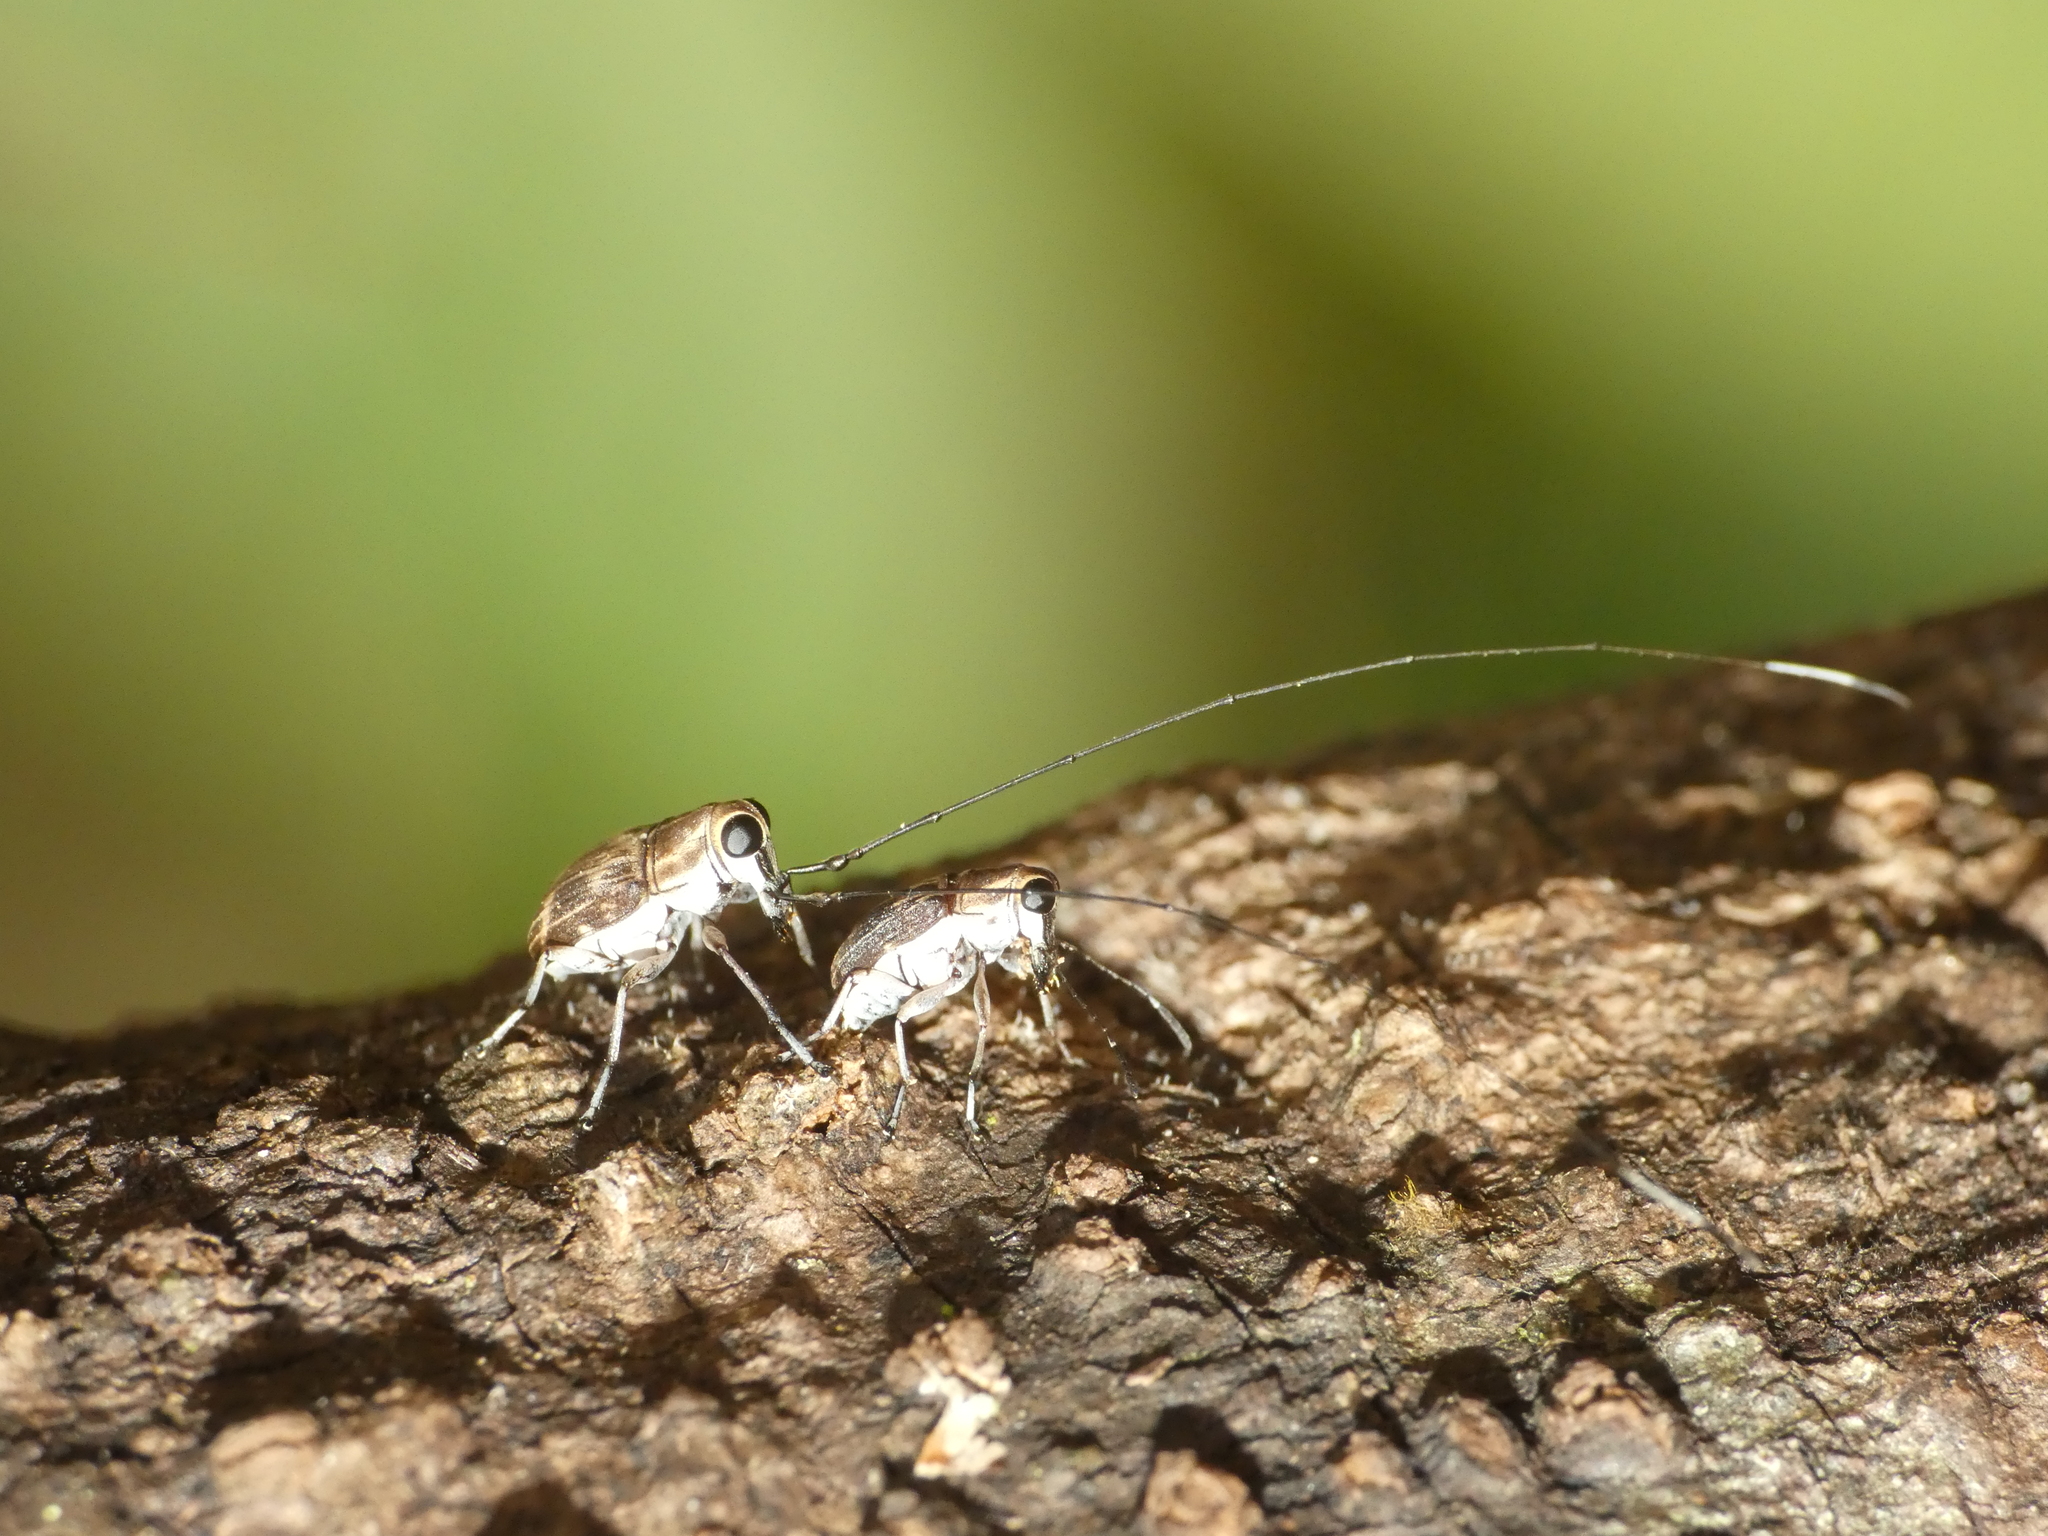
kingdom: Animalia
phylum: Arthropoda
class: Insecta
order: Coleoptera
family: Anthribidae
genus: Hucus
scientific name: Hucus persimilis
